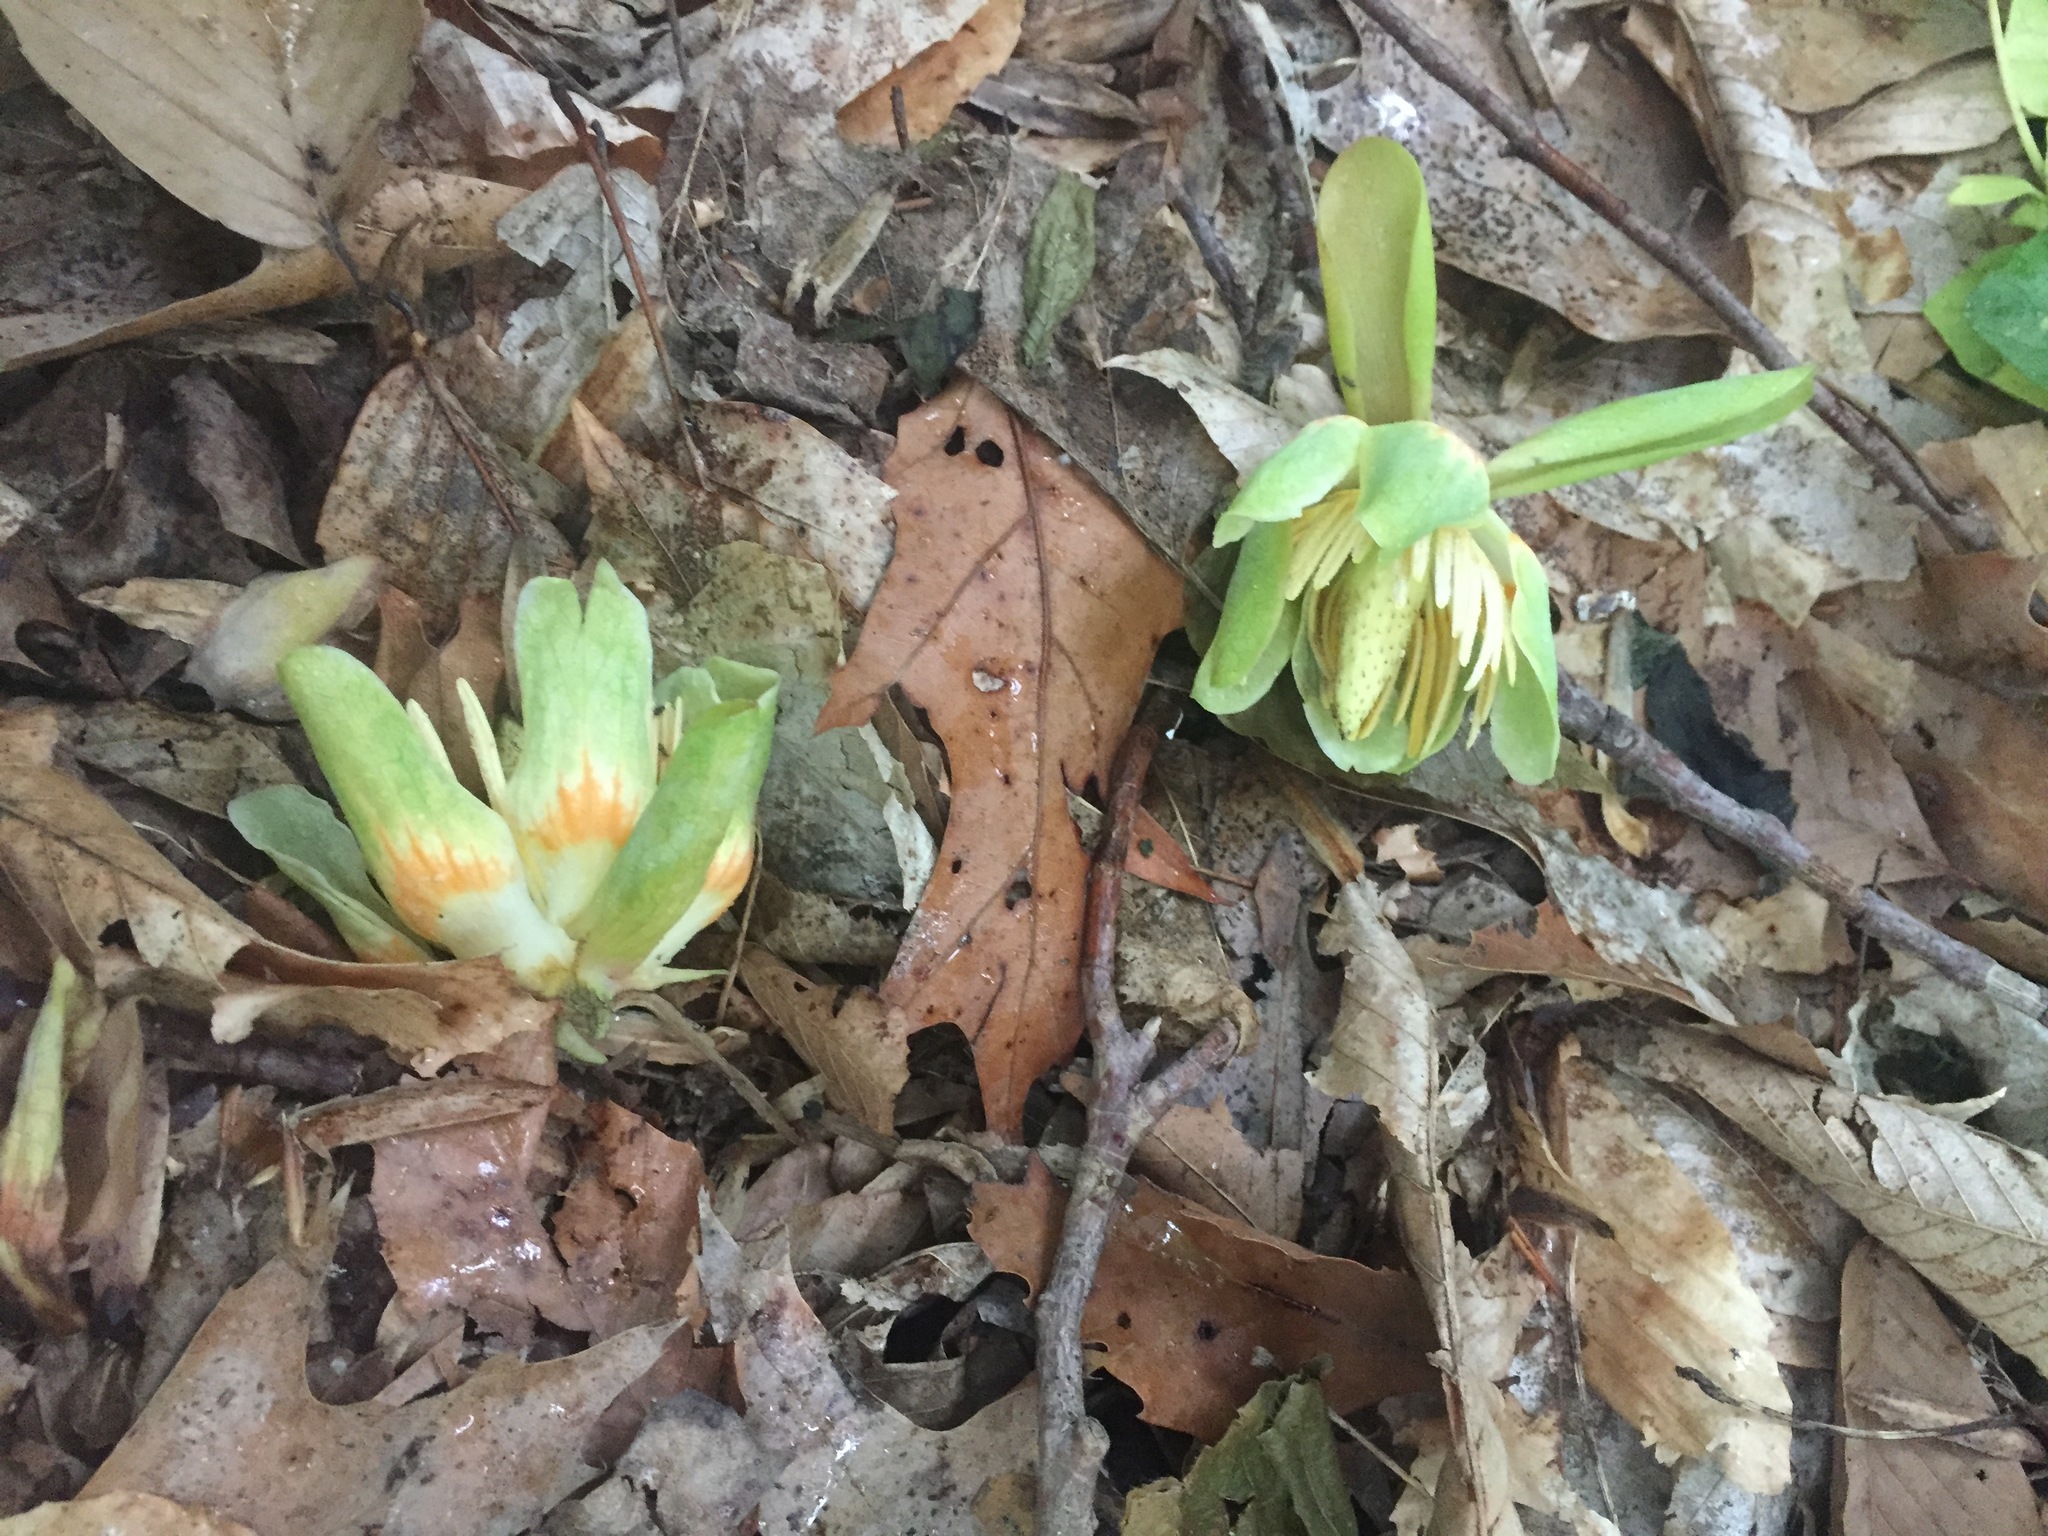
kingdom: Plantae
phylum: Tracheophyta
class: Magnoliopsida
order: Magnoliales
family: Magnoliaceae
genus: Liriodendron
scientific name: Liriodendron tulipifera
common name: Tulip tree
